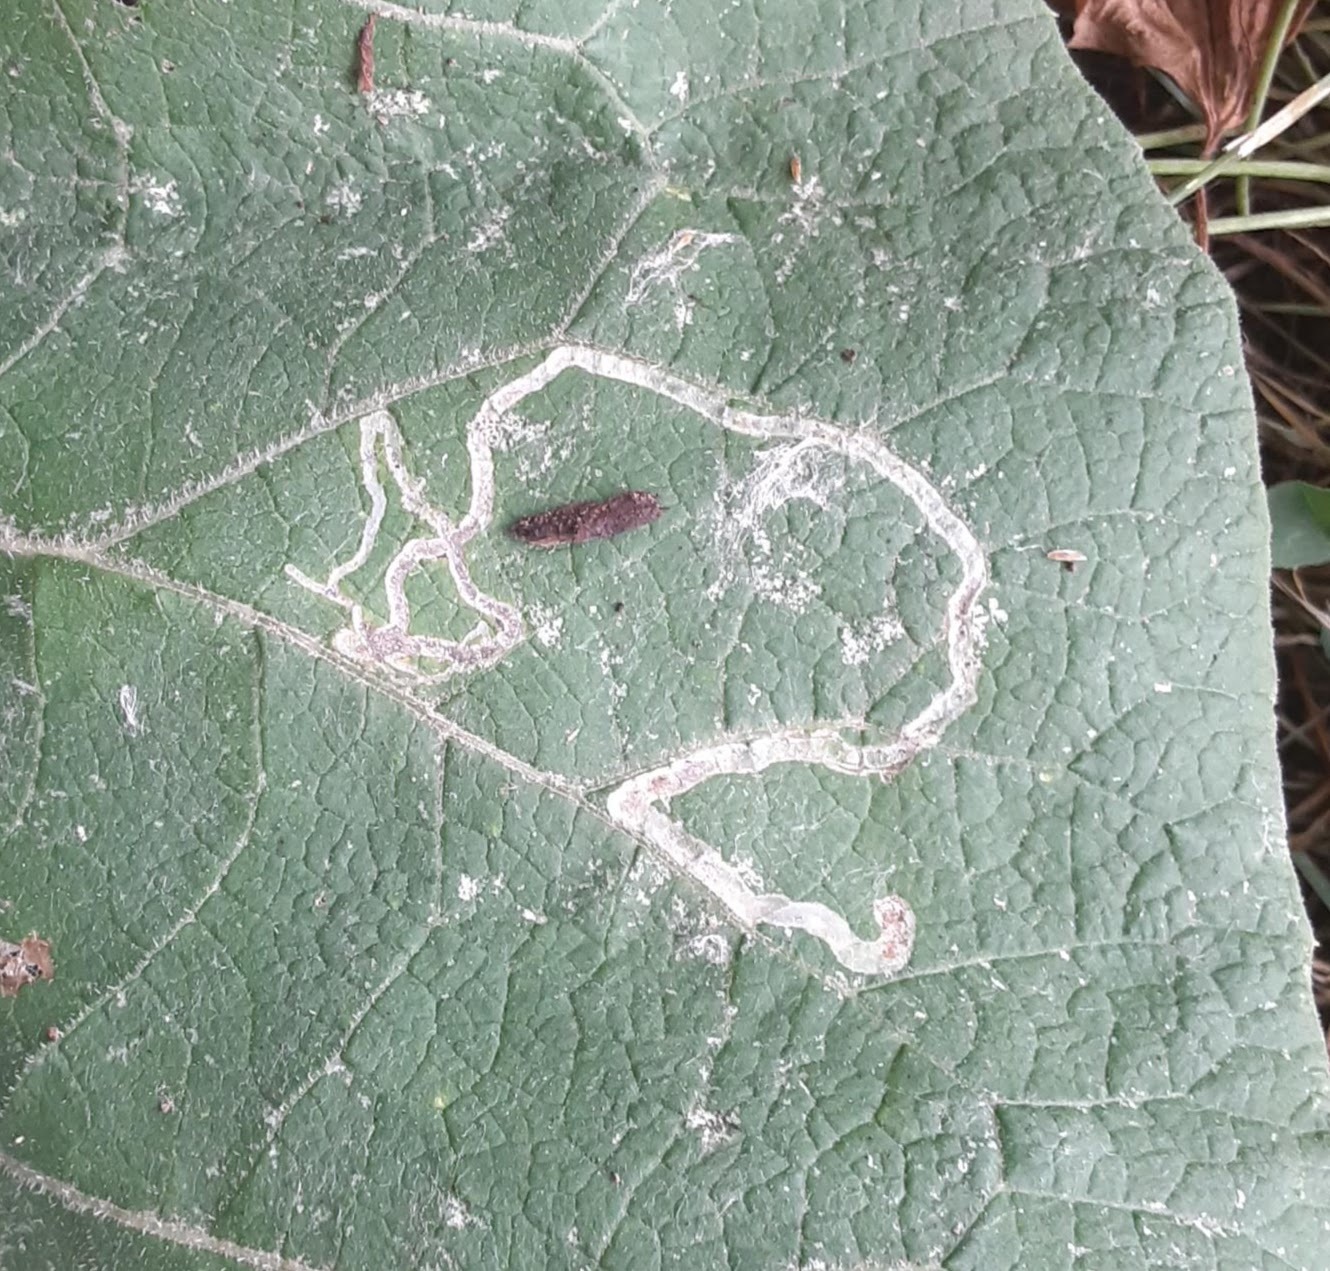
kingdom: Animalia
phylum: Arthropoda
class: Insecta
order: Diptera
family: Agromyzidae
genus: Liriomyza
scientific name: Liriomyza arctii
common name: Burdock leafminer
